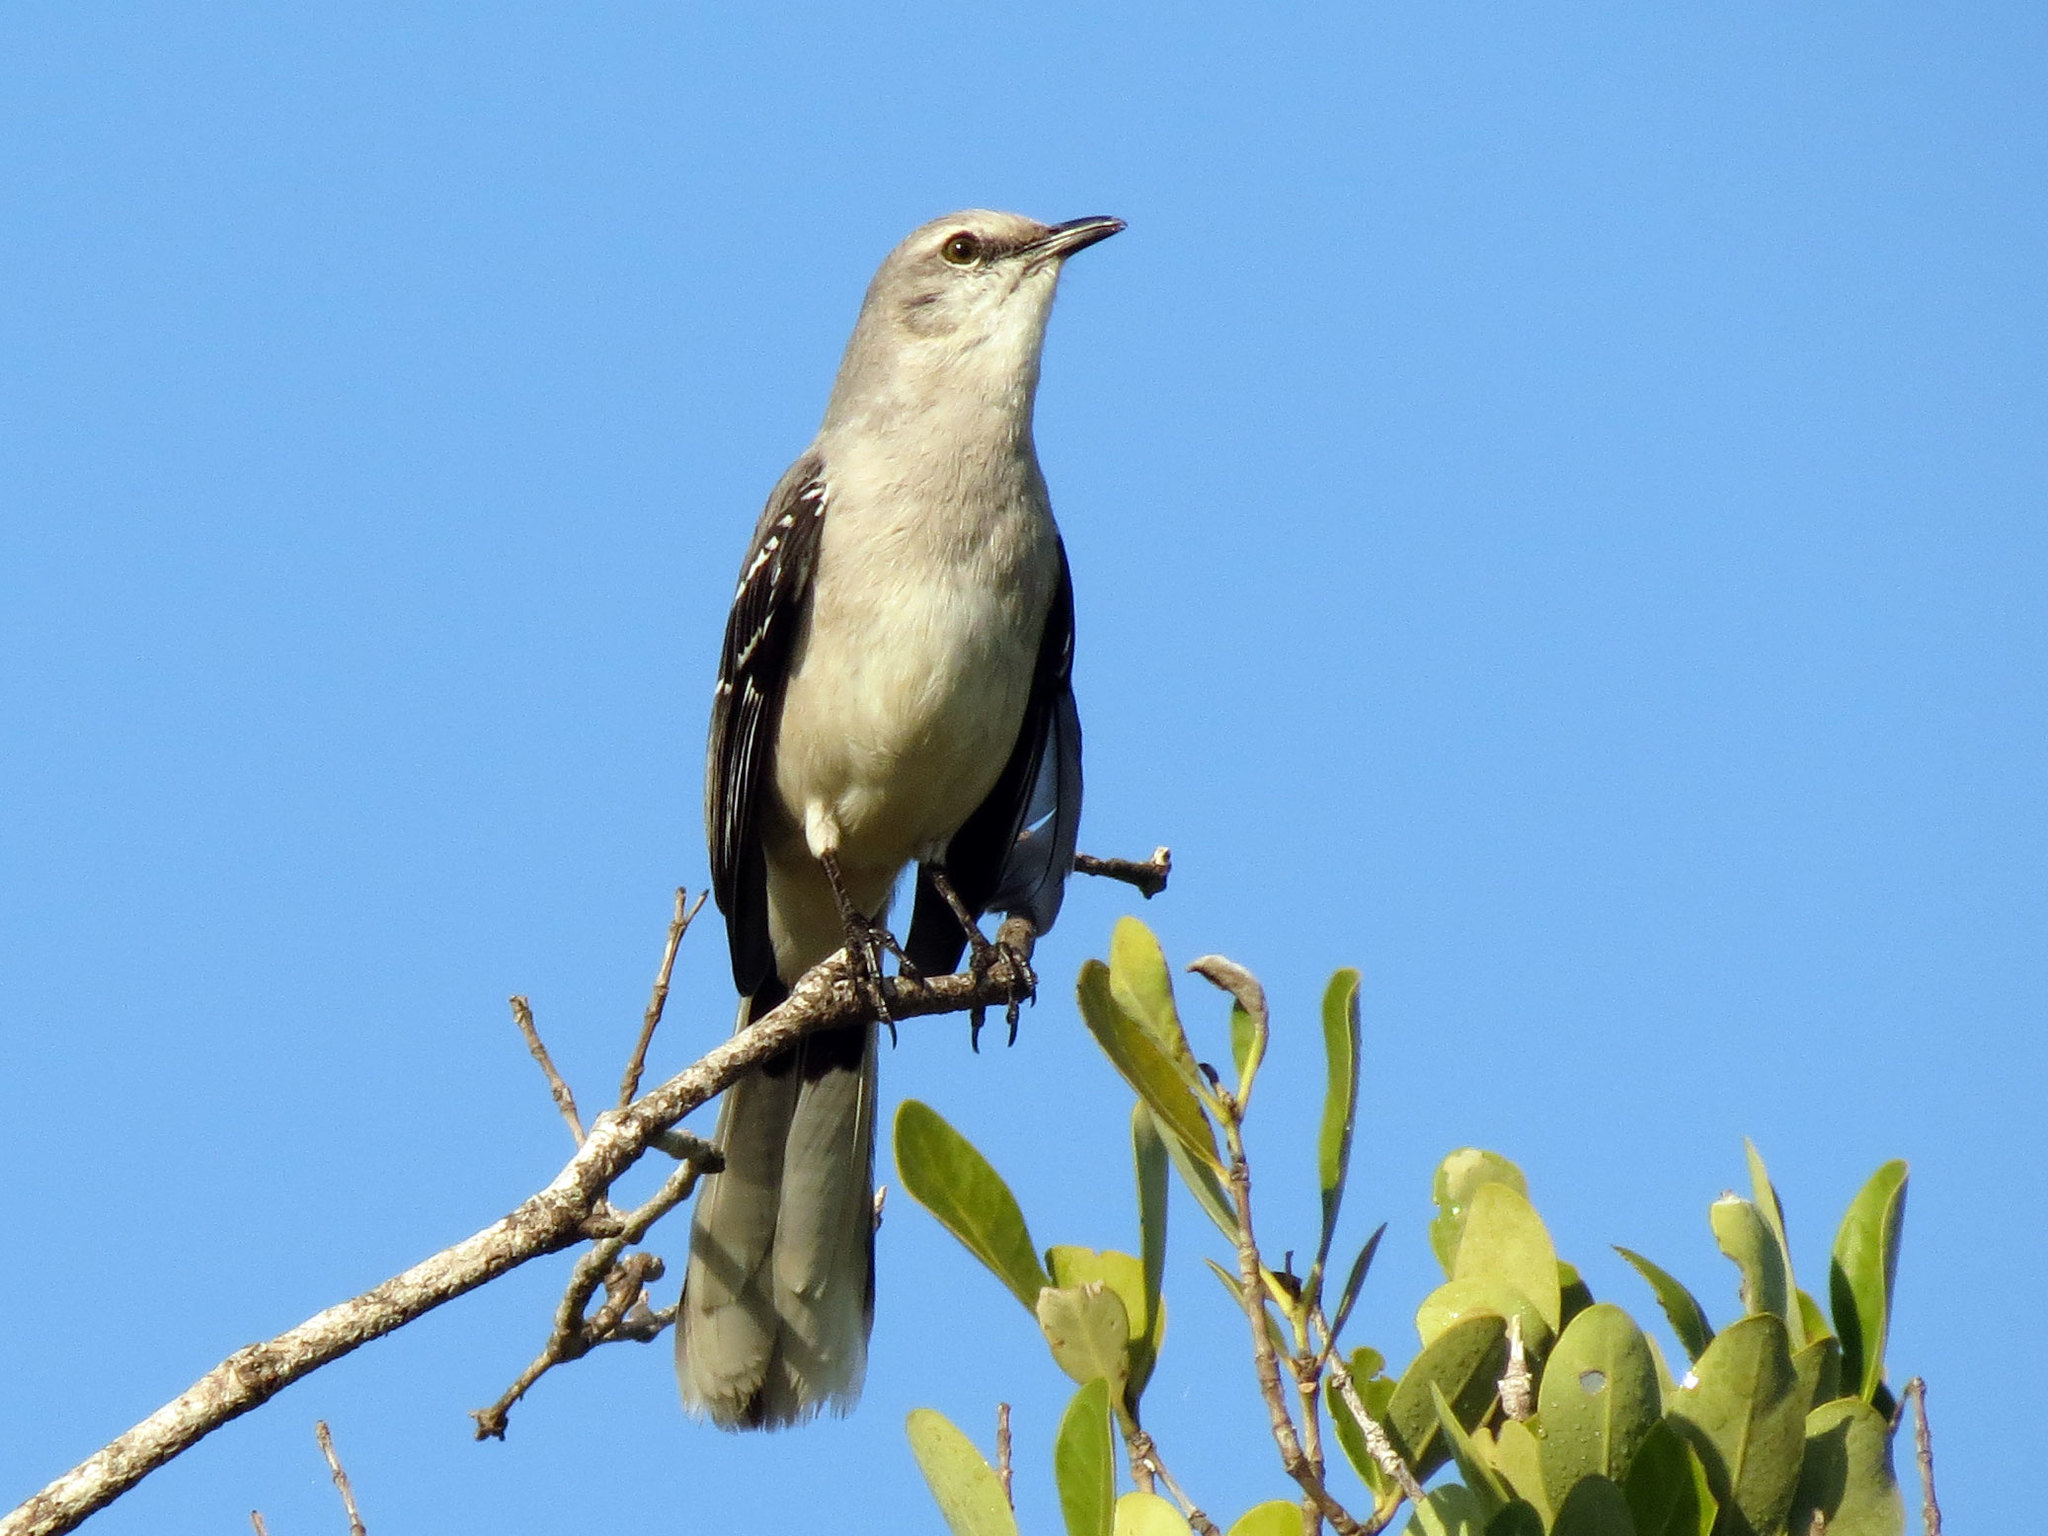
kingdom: Animalia
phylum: Chordata
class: Aves
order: Passeriformes
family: Mimidae
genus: Mimus
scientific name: Mimus gilvus
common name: Tropical mockingbird
